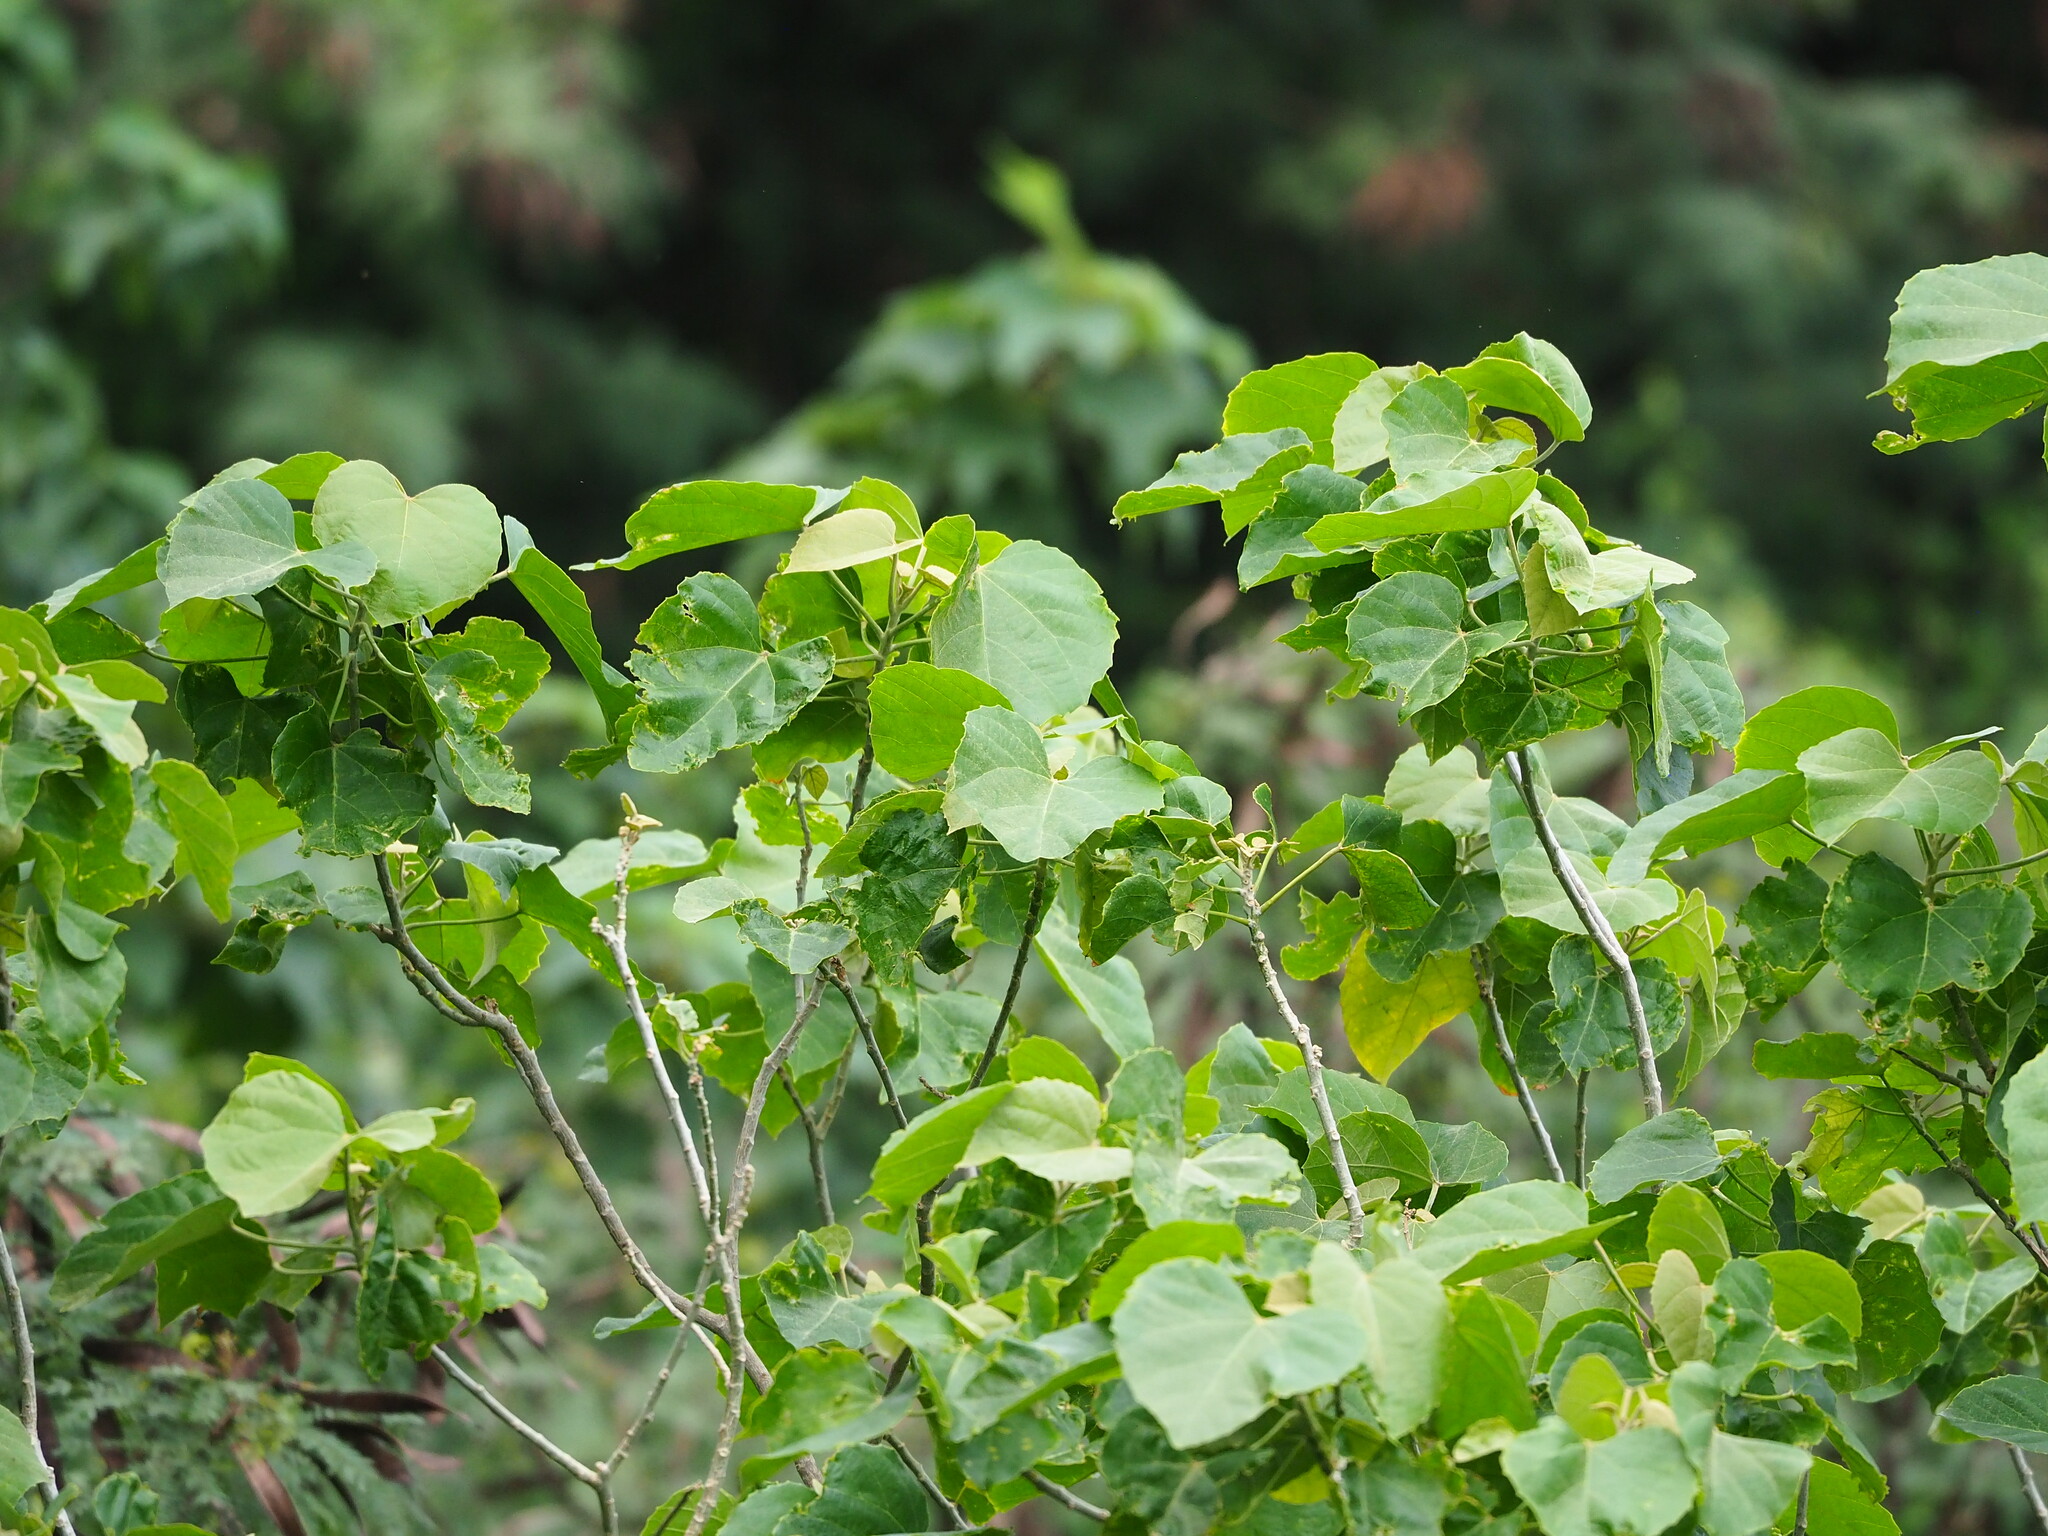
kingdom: Plantae
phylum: Tracheophyta
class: Magnoliopsida
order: Malpighiales
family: Euphorbiaceae
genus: Melanolepis
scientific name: Melanolepis multiglandulosa
